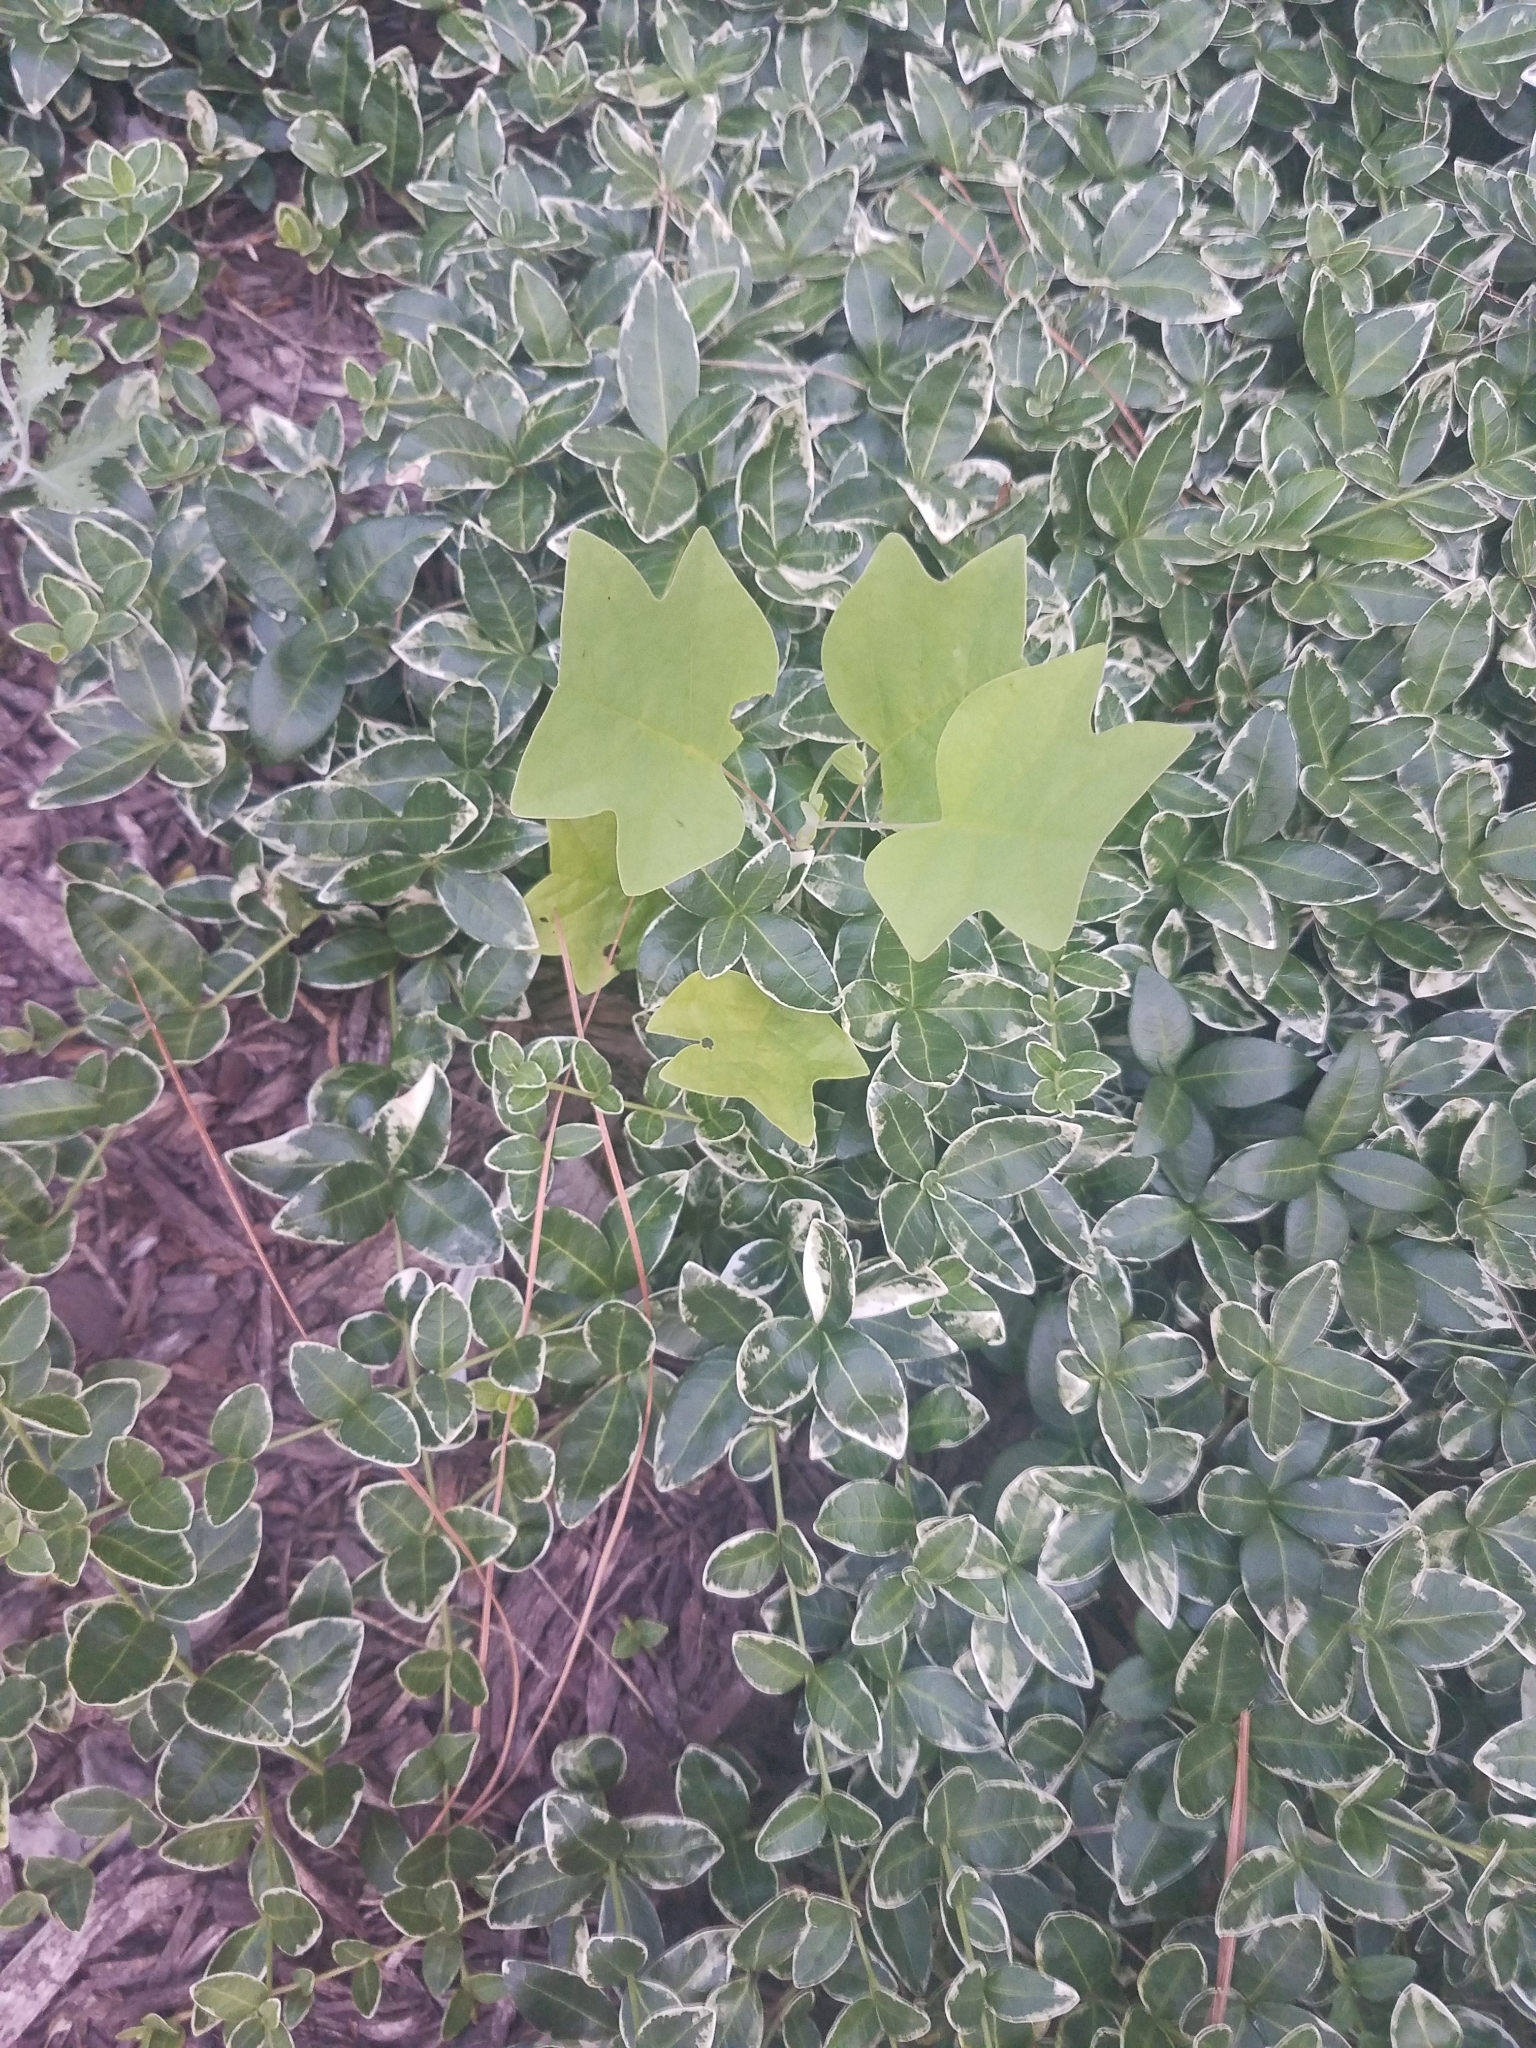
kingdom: Plantae
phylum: Tracheophyta
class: Magnoliopsida
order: Magnoliales
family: Magnoliaceae
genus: Liriodendron
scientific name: Liriodendron tulipifera
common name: Tulip tree
